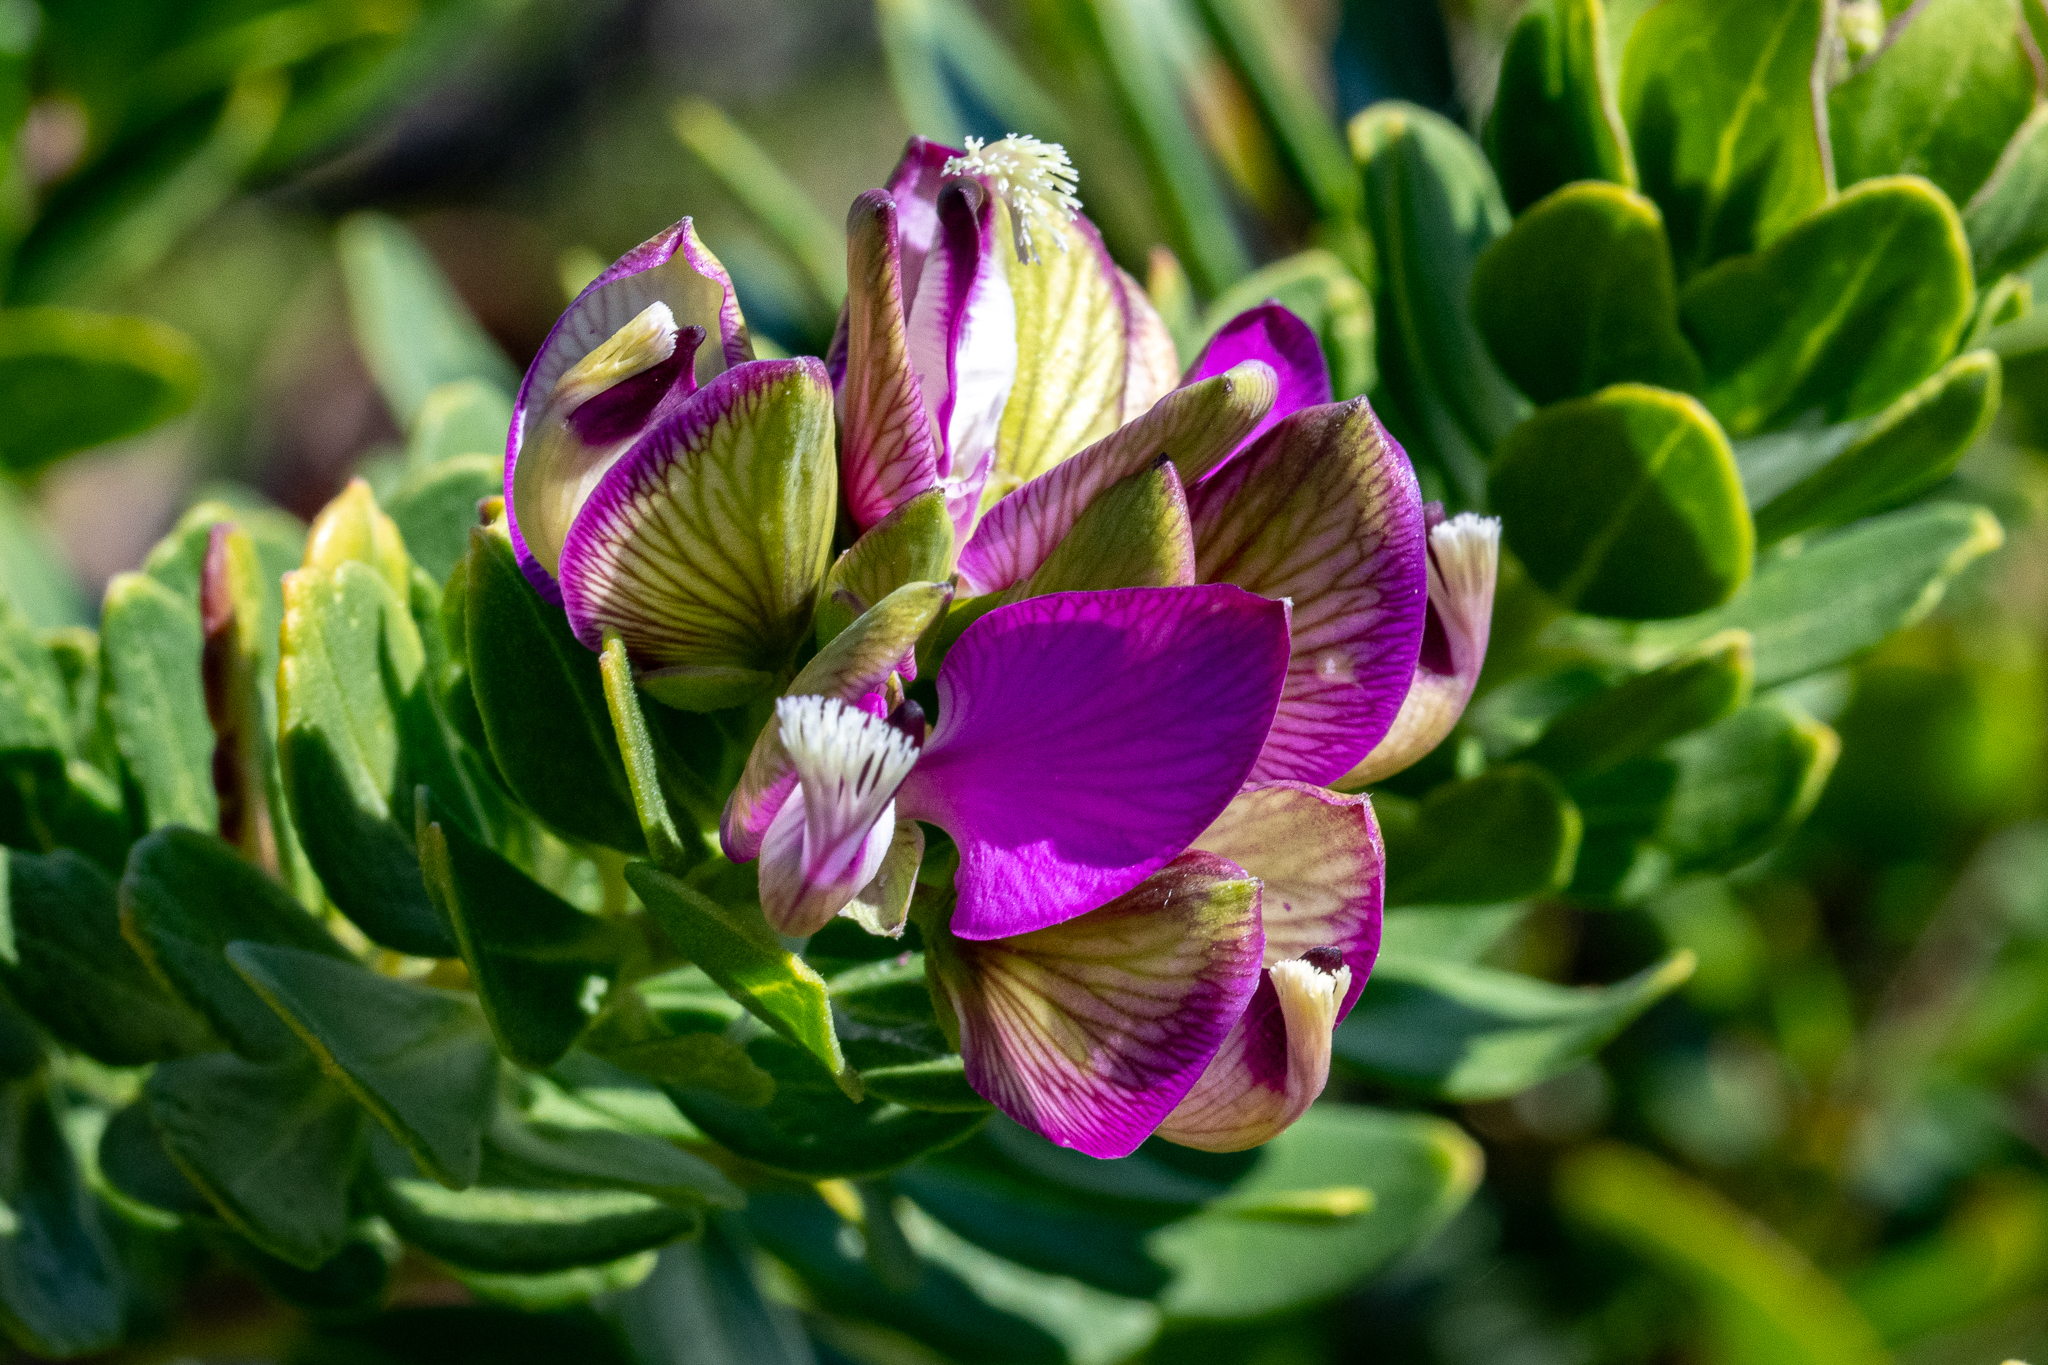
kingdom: Plantae
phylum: Tracheophyta
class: Magnoliopsida
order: Fabales
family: Polygalaceae
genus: Polygala
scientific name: Polygala myrtifolia
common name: Myrtle-leaf milkwort
